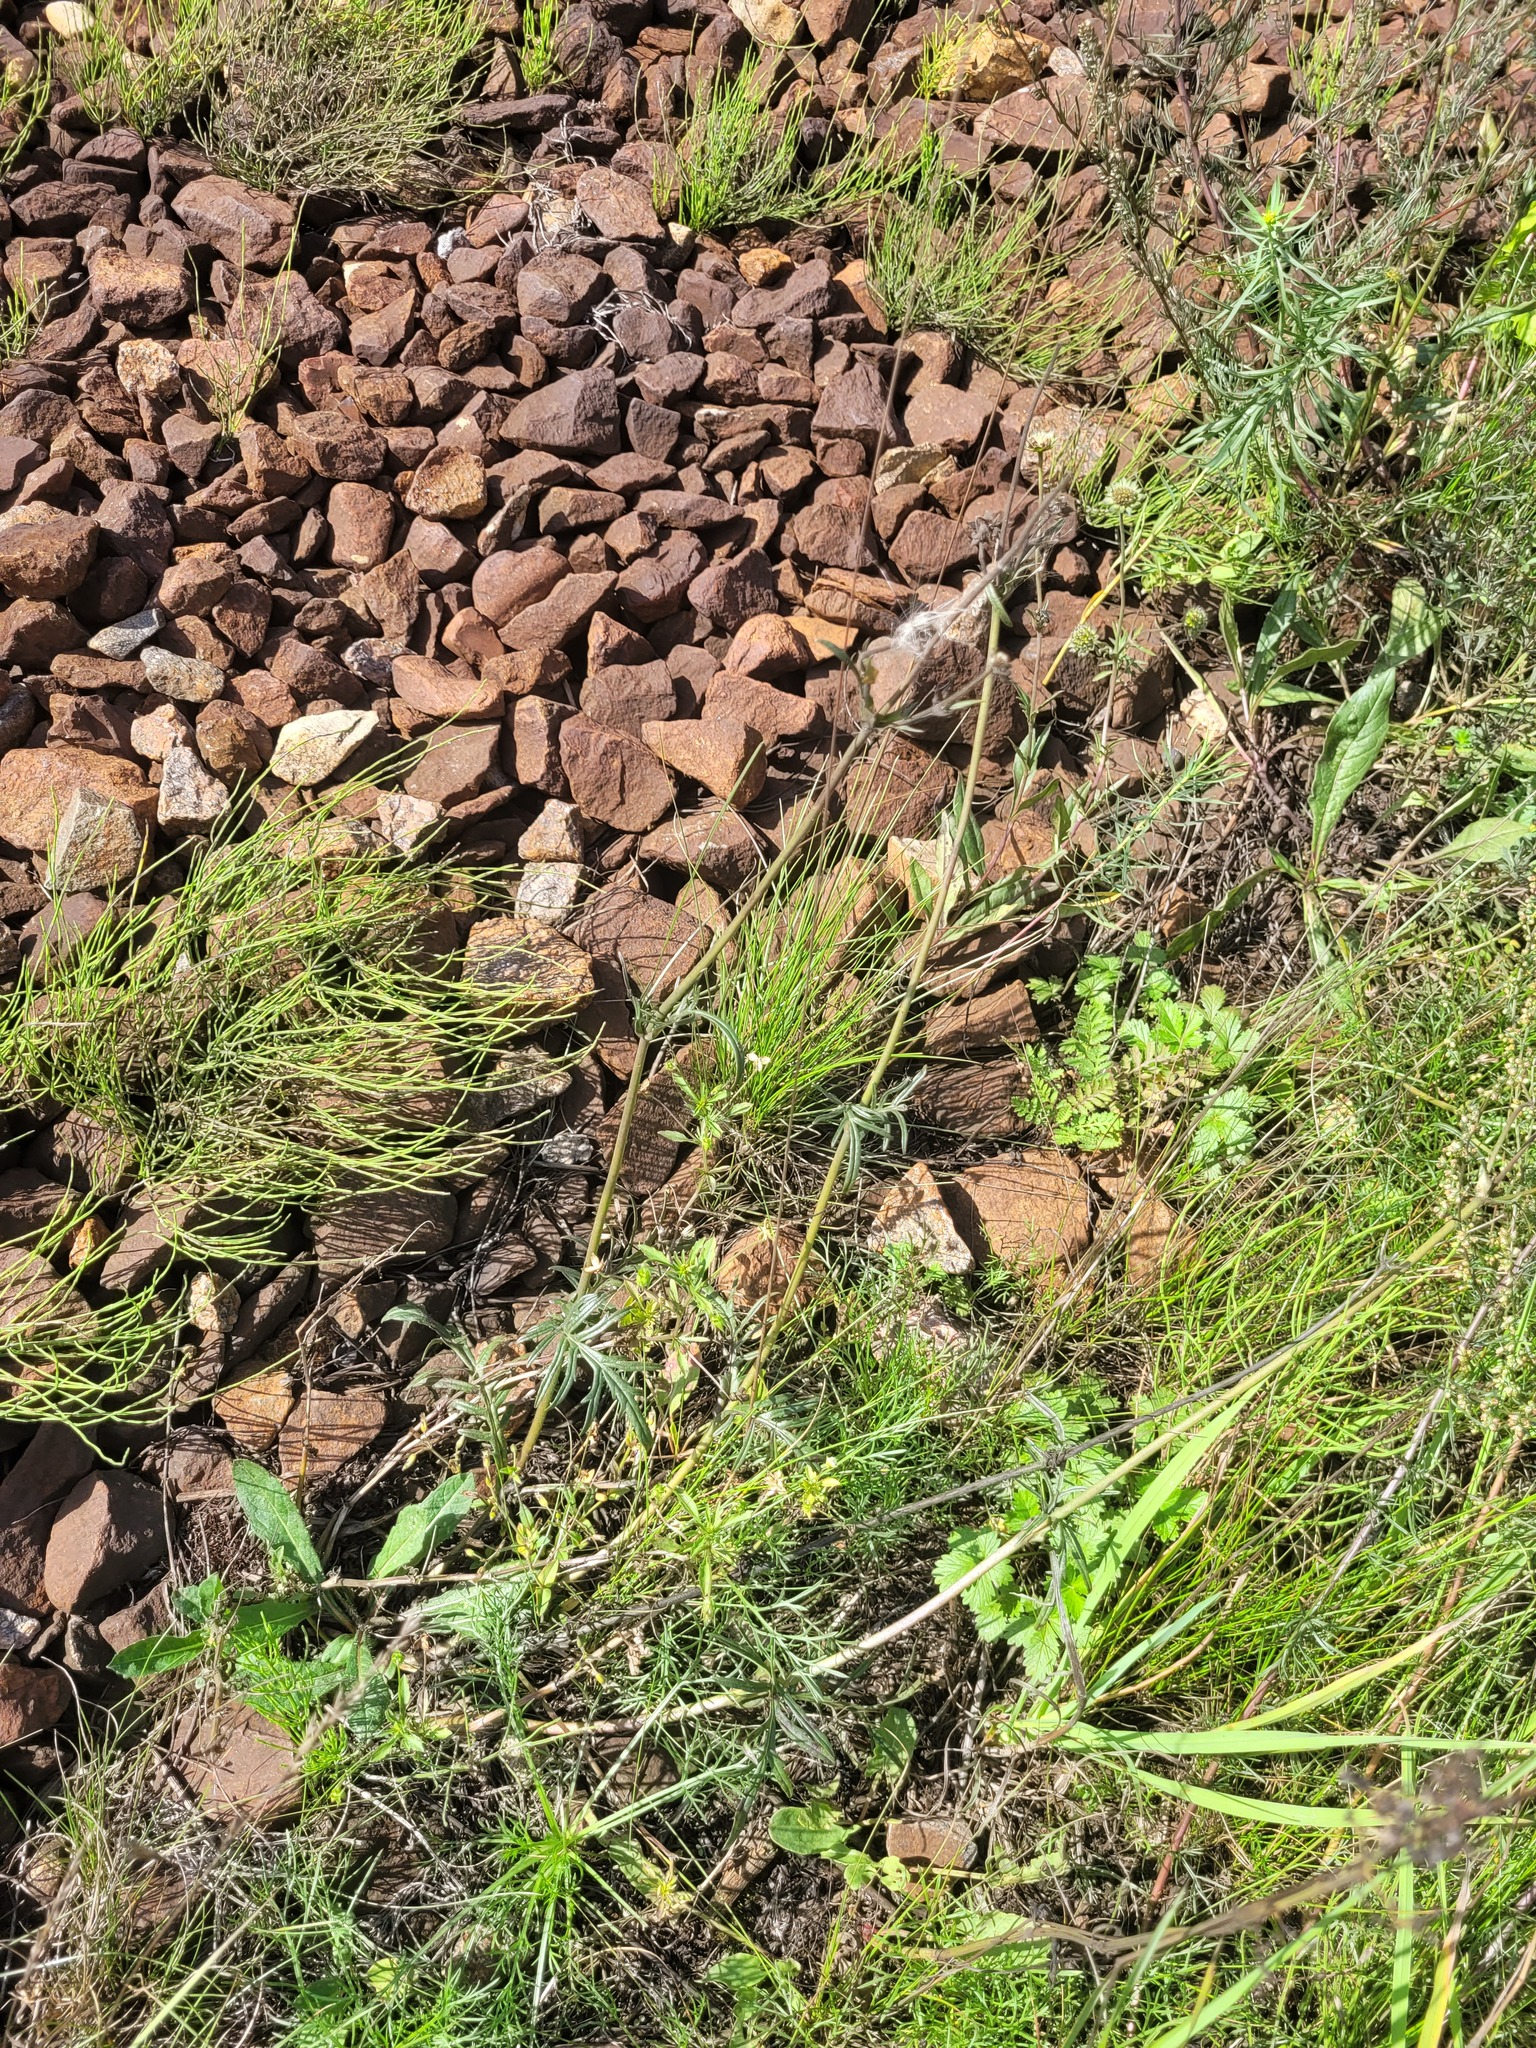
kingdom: Plantae
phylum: Tracheophyta
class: Magnoliopsida
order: Dipsacales
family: Caprifoliaceae
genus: Knautia
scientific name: Knautia arvensis
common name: Field scabiosa
